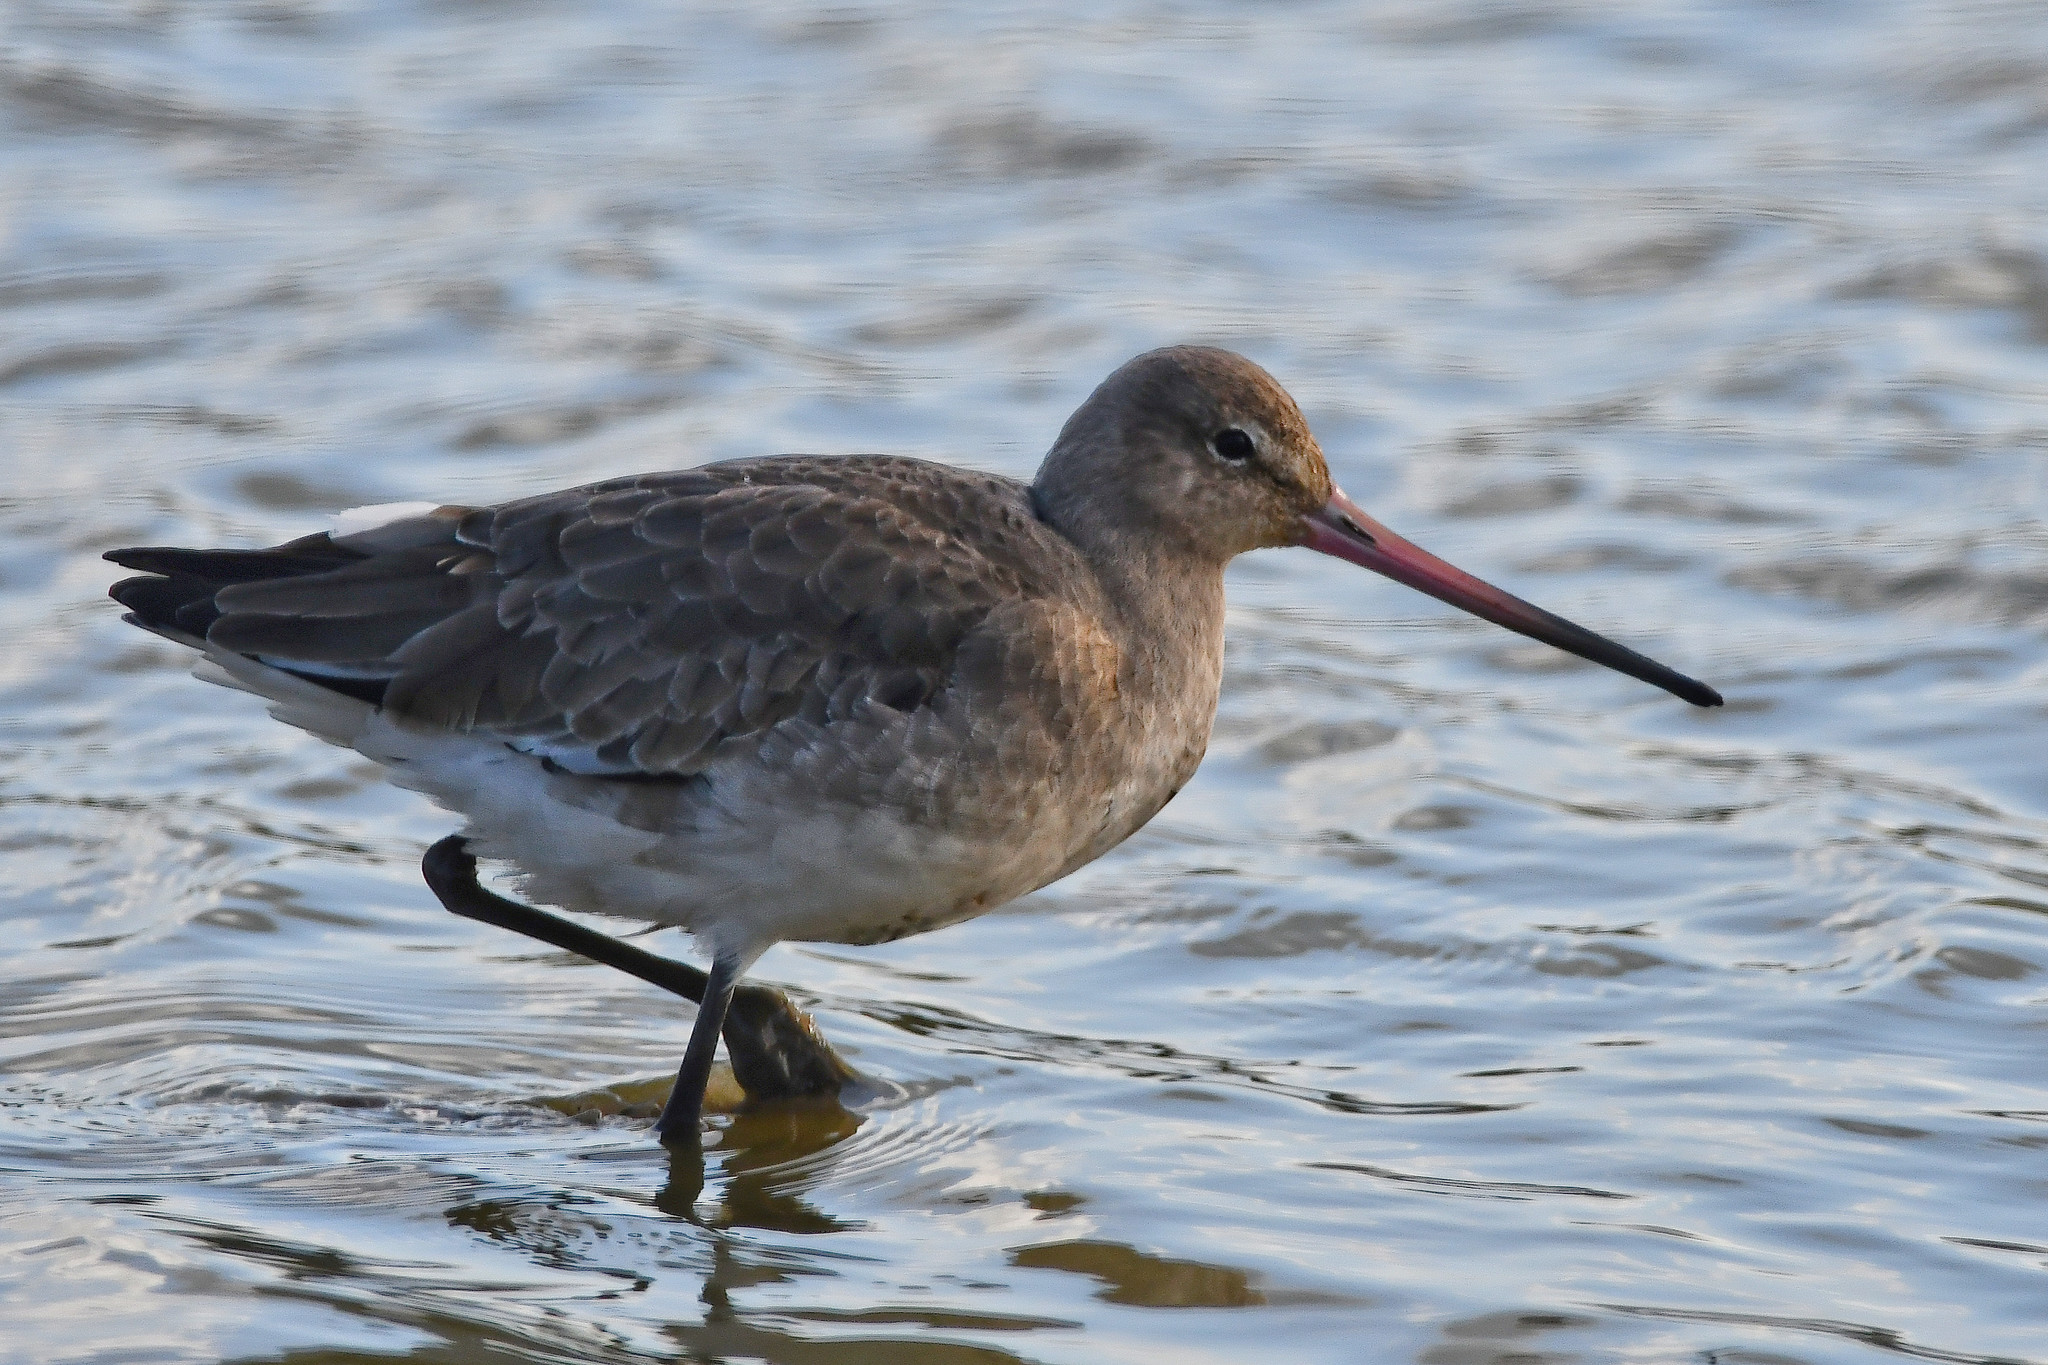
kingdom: Animalia
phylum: Chordata
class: Aves
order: Charadriiformes
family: Scolopacidae
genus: Limosa
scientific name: Limosa limosa
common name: Black-tailed godwit
